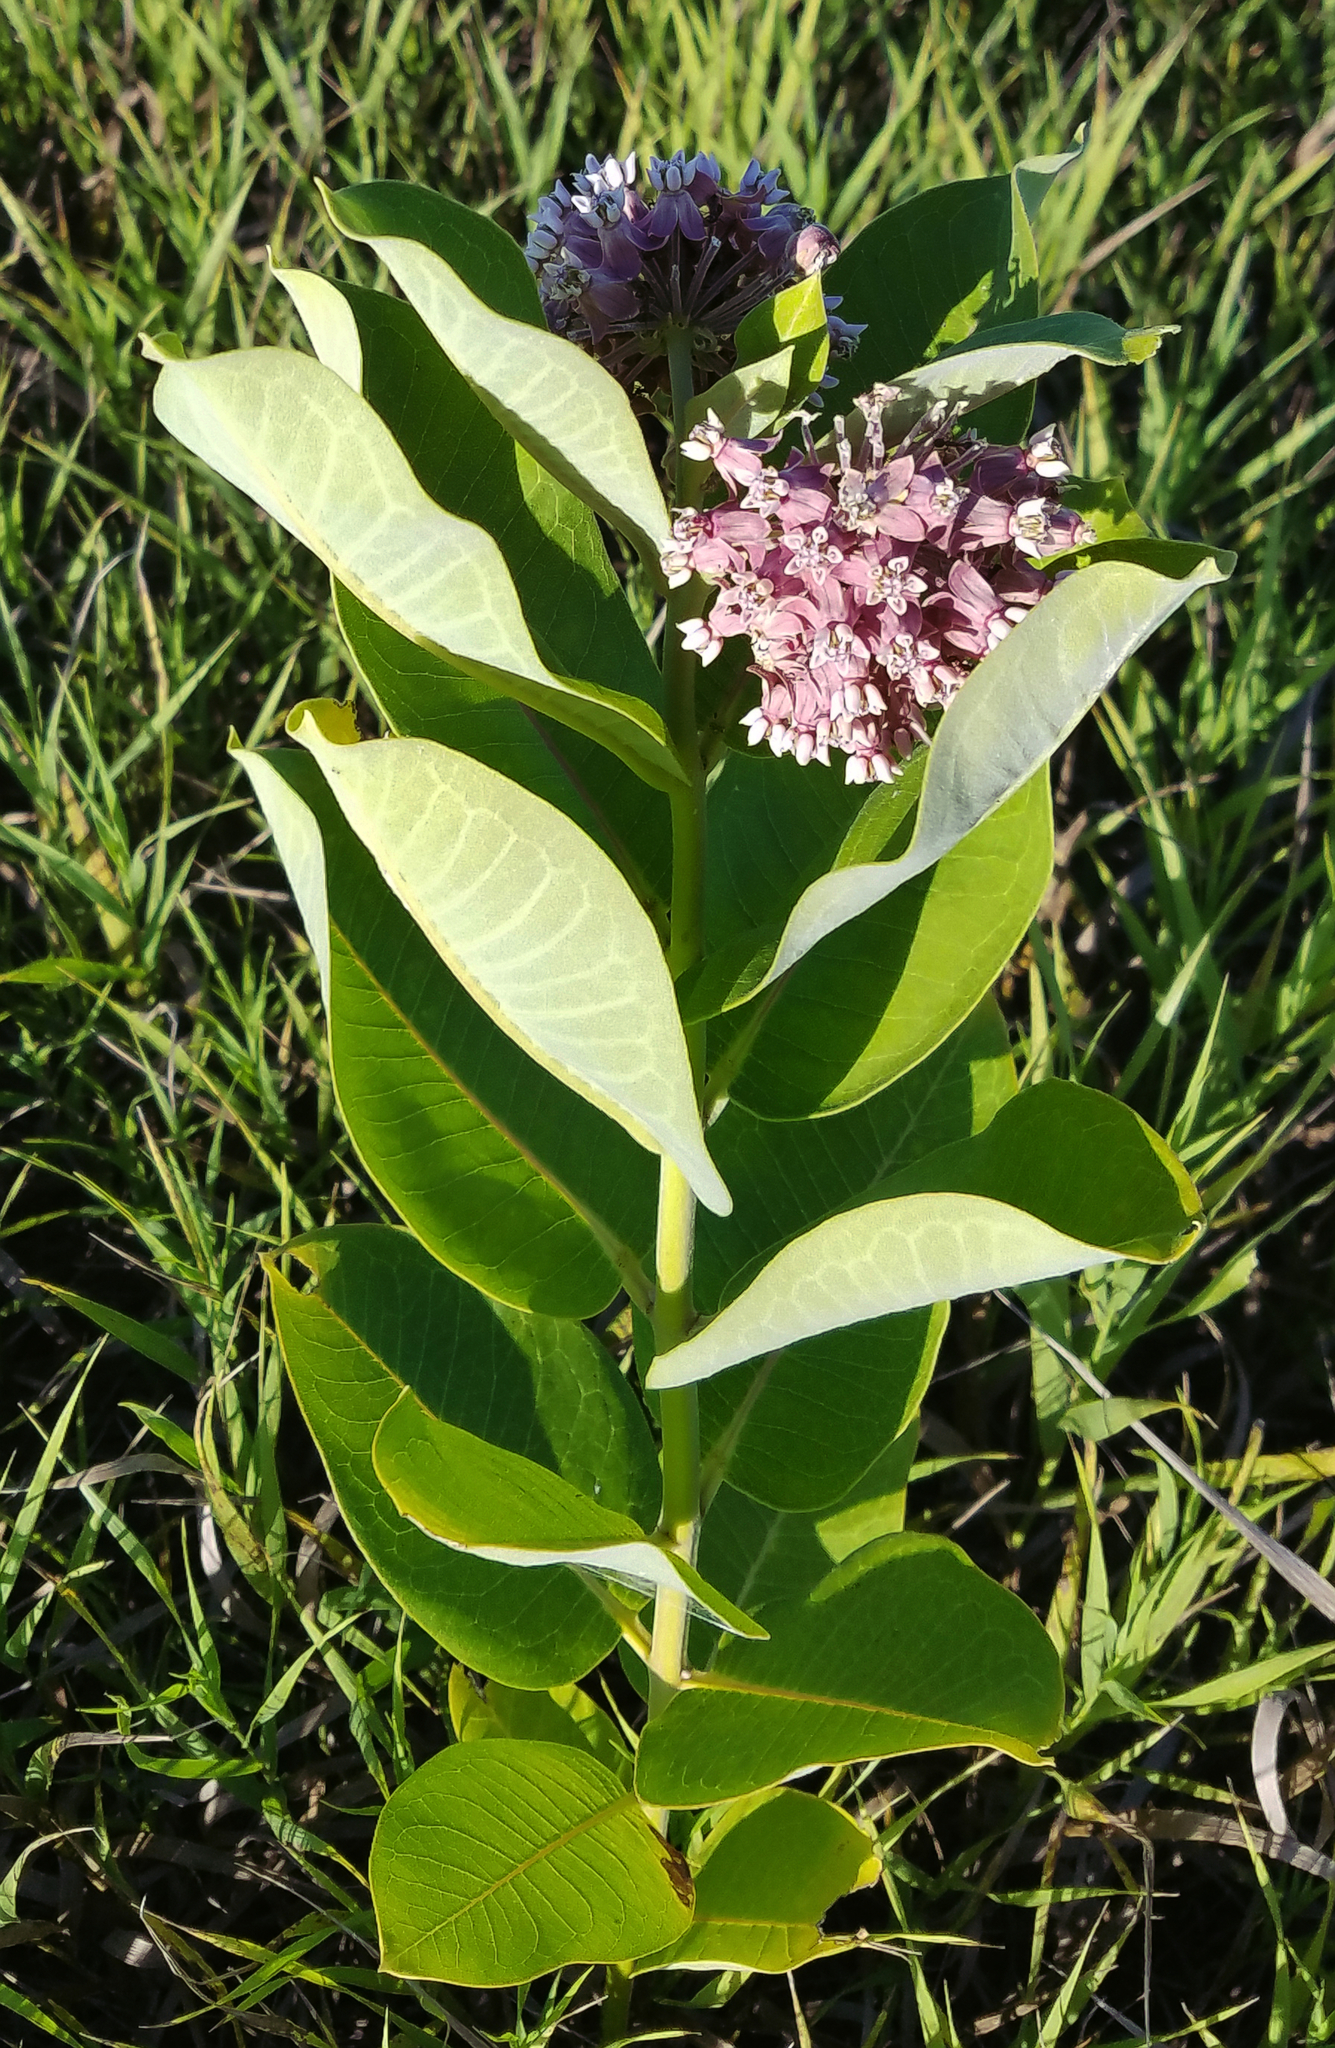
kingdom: Plantae
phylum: Tracheophyta
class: Magnoliopsida
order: Gentianales
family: Apocynaceae
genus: Asclepias
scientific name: Asclepias syriaca
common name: Common milkweed
